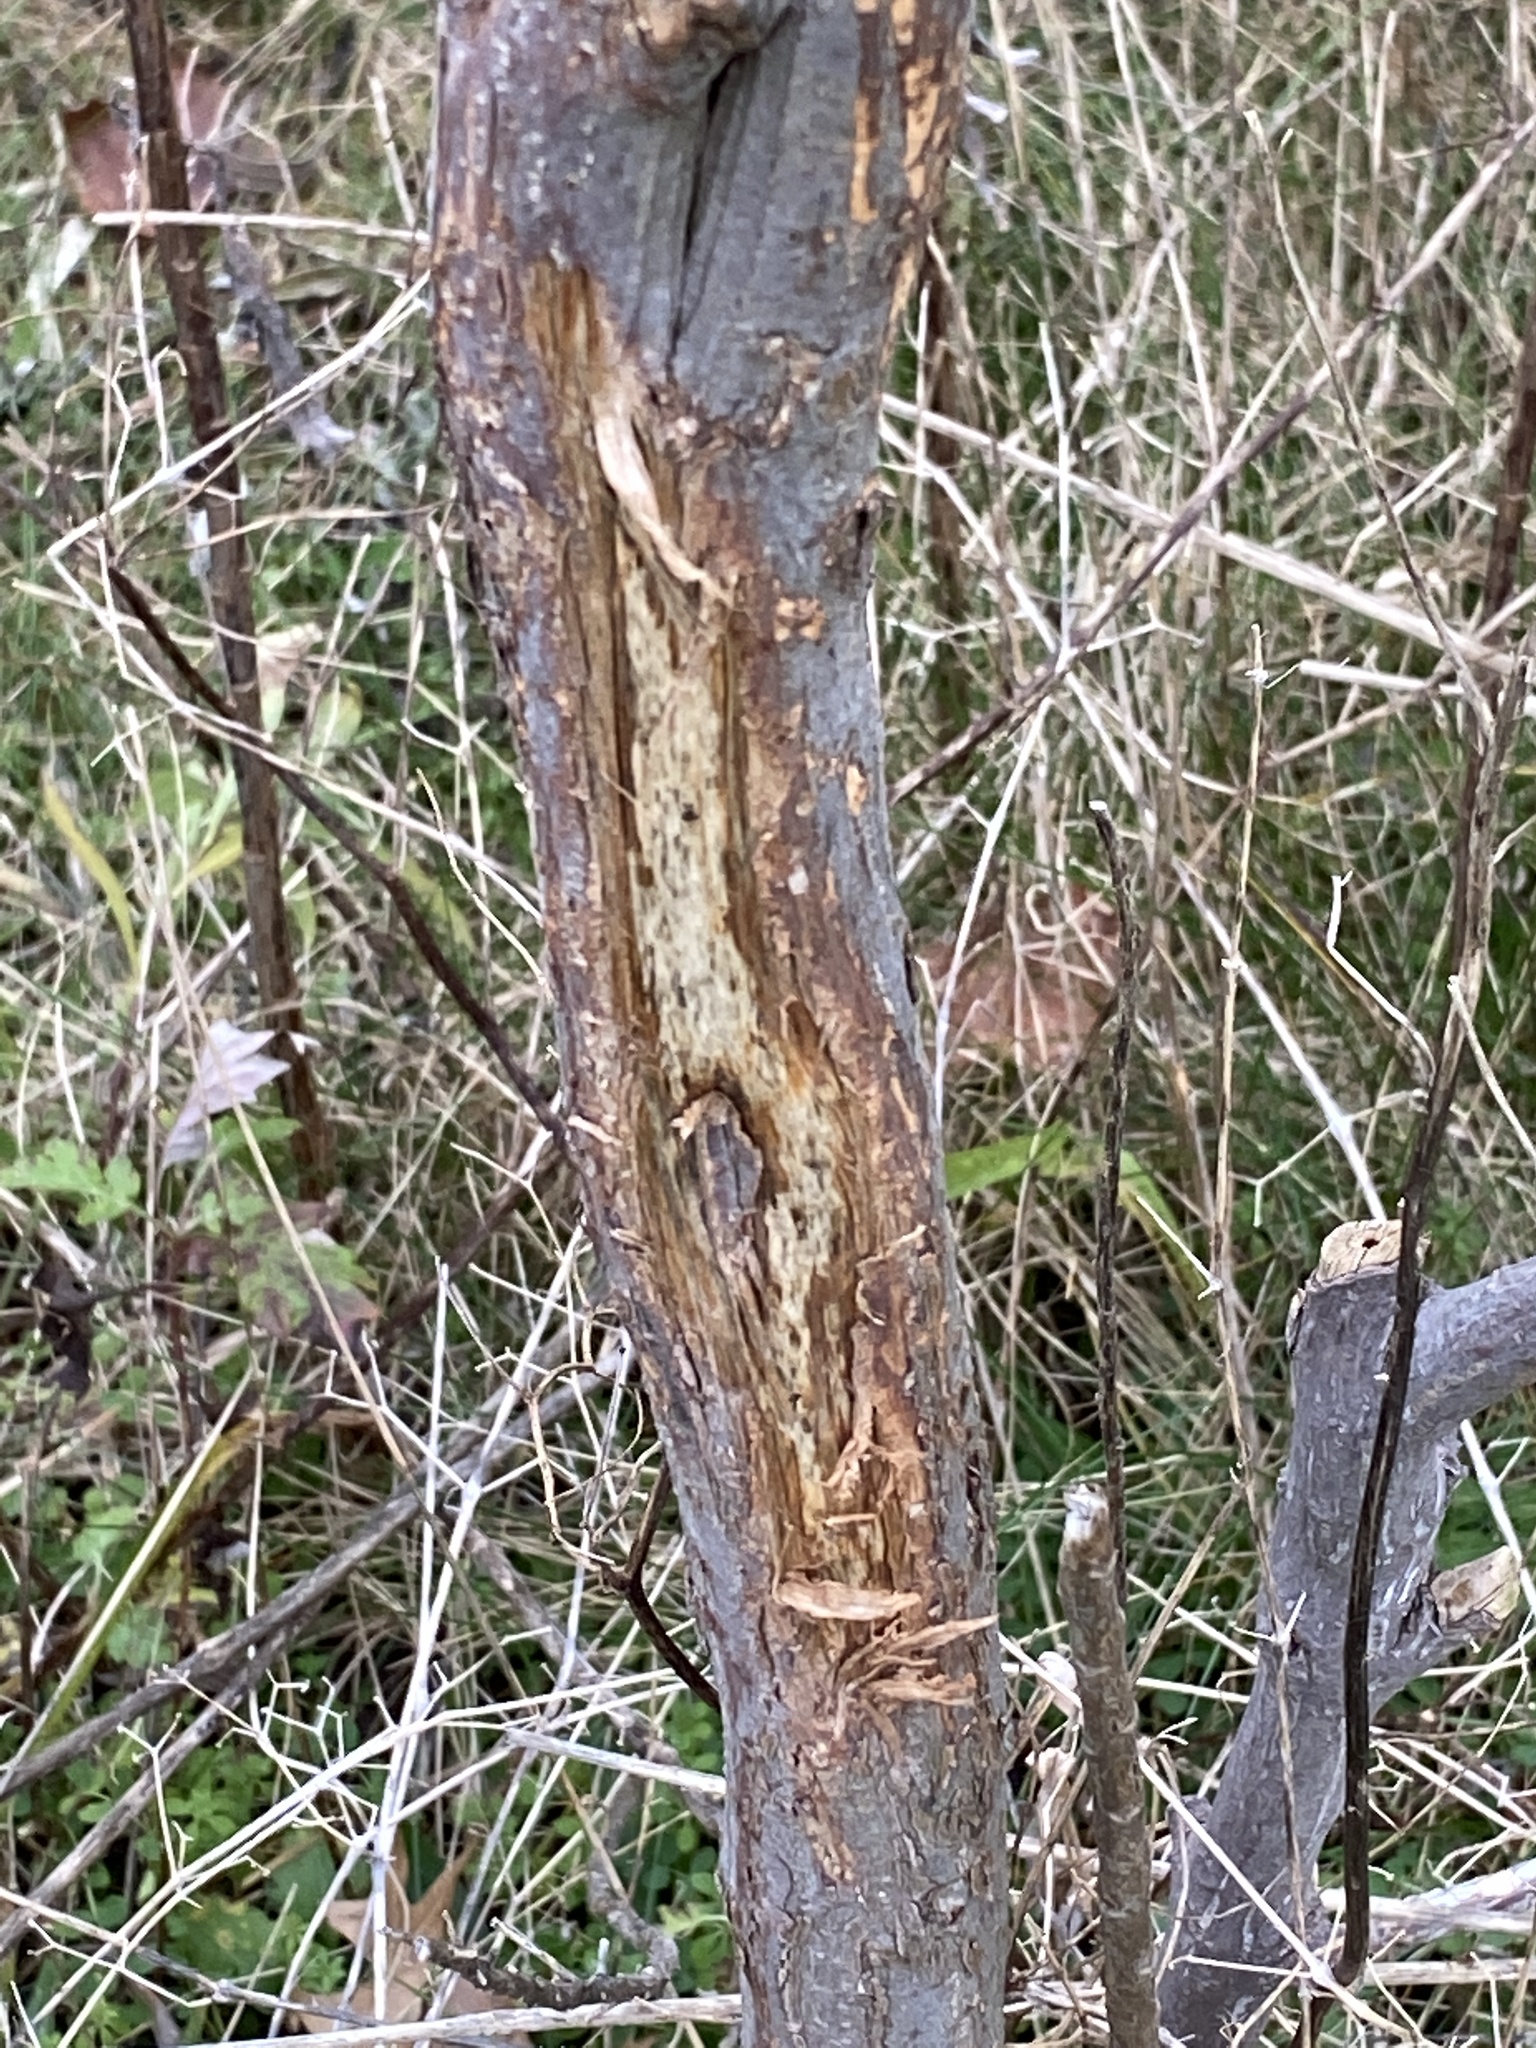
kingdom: Animalia
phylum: Chordata
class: Mammalia
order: Artiodactyla
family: Cervidae
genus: Odocoileus
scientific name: Odocoileus virginianus
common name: White-tailed deer
